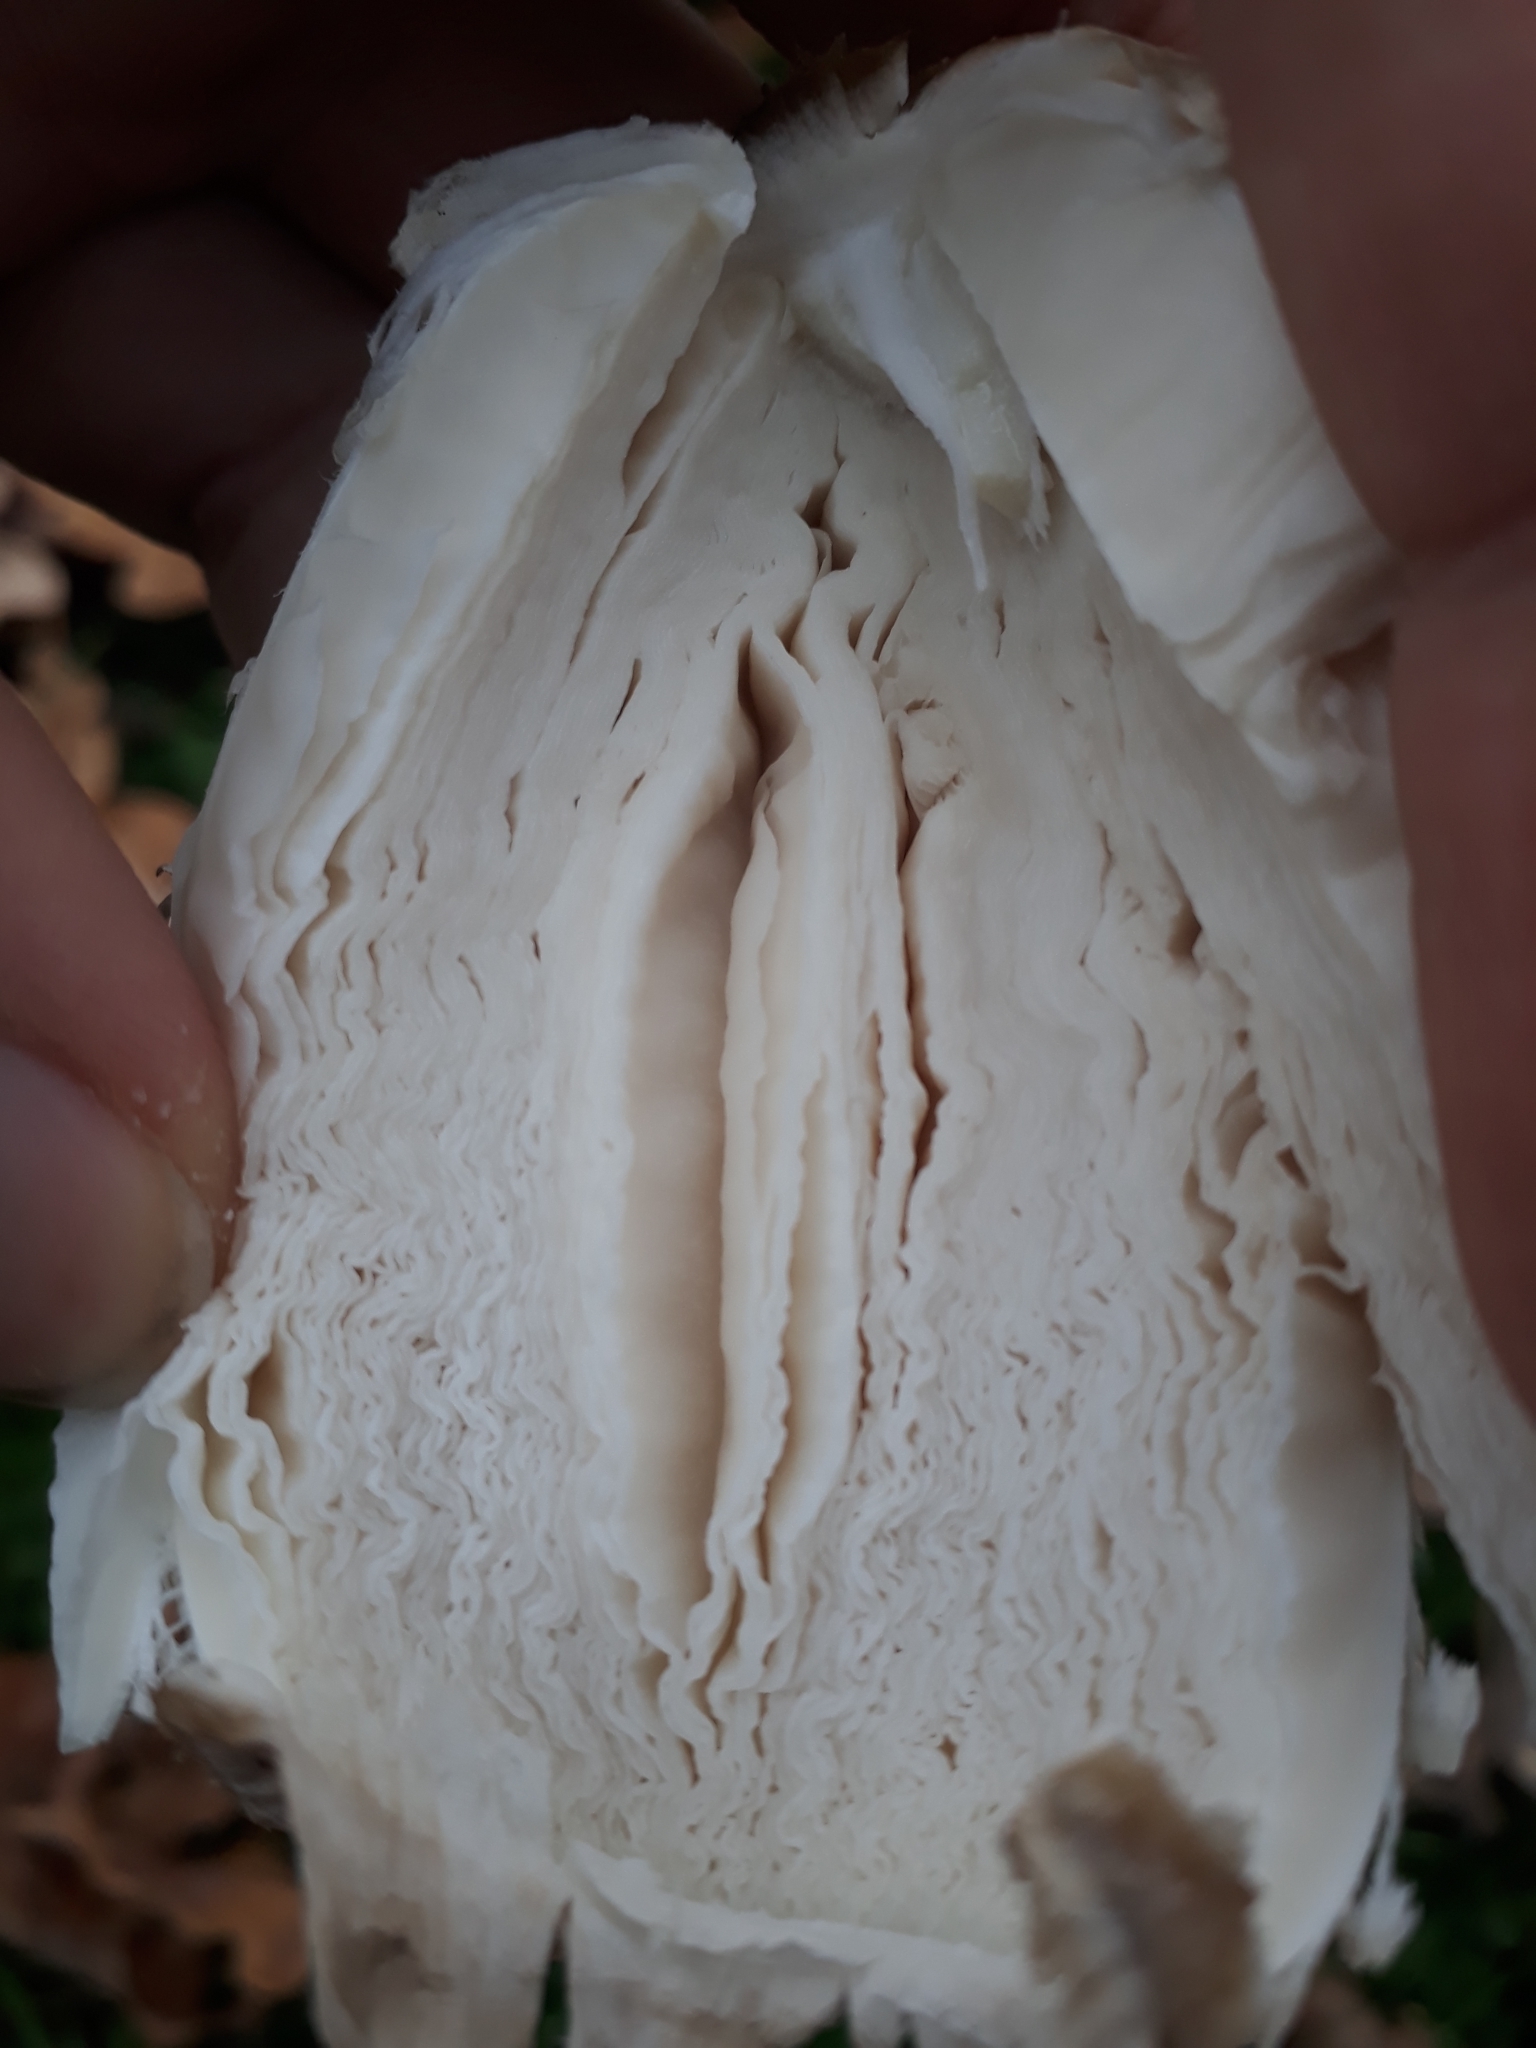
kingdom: Fungi
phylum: Basidiomycota
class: Agaricomycetes
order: Agaricales
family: Agaricaceae
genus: Coprinus
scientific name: Coprinus comatus
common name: Lawyer's wig
